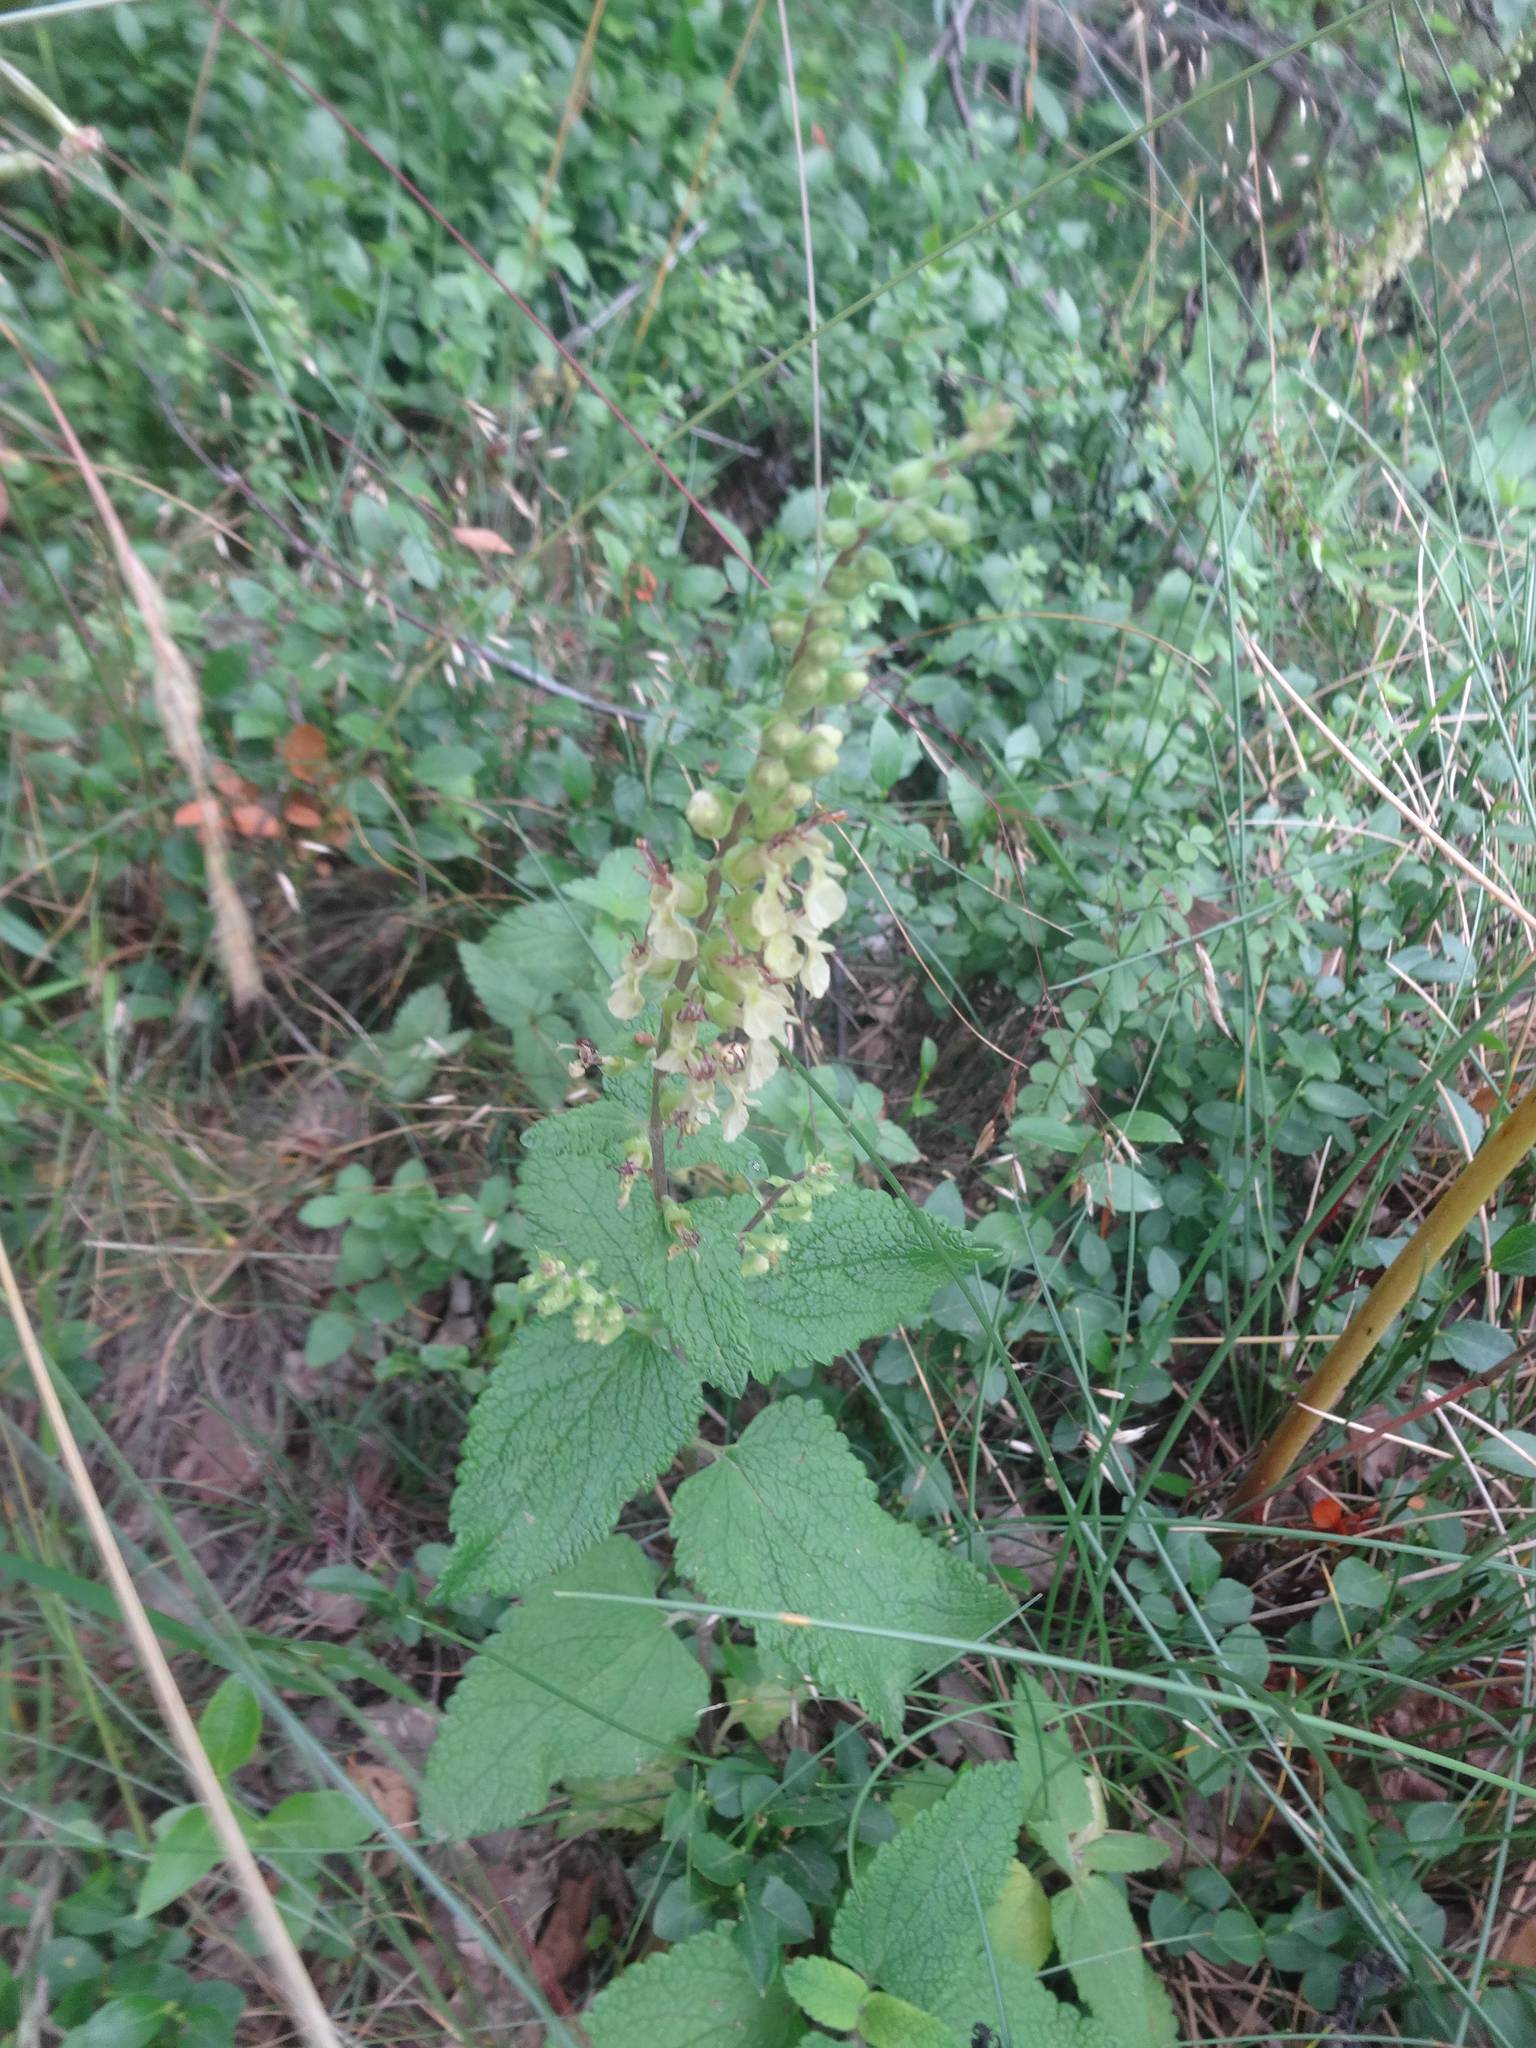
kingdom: Plantae
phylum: Tracheophyta
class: Magnoliopsida
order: Lamiales
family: Lamiaceae
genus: Teucrium
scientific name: Teucrium scorodonia
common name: Woodland germander
